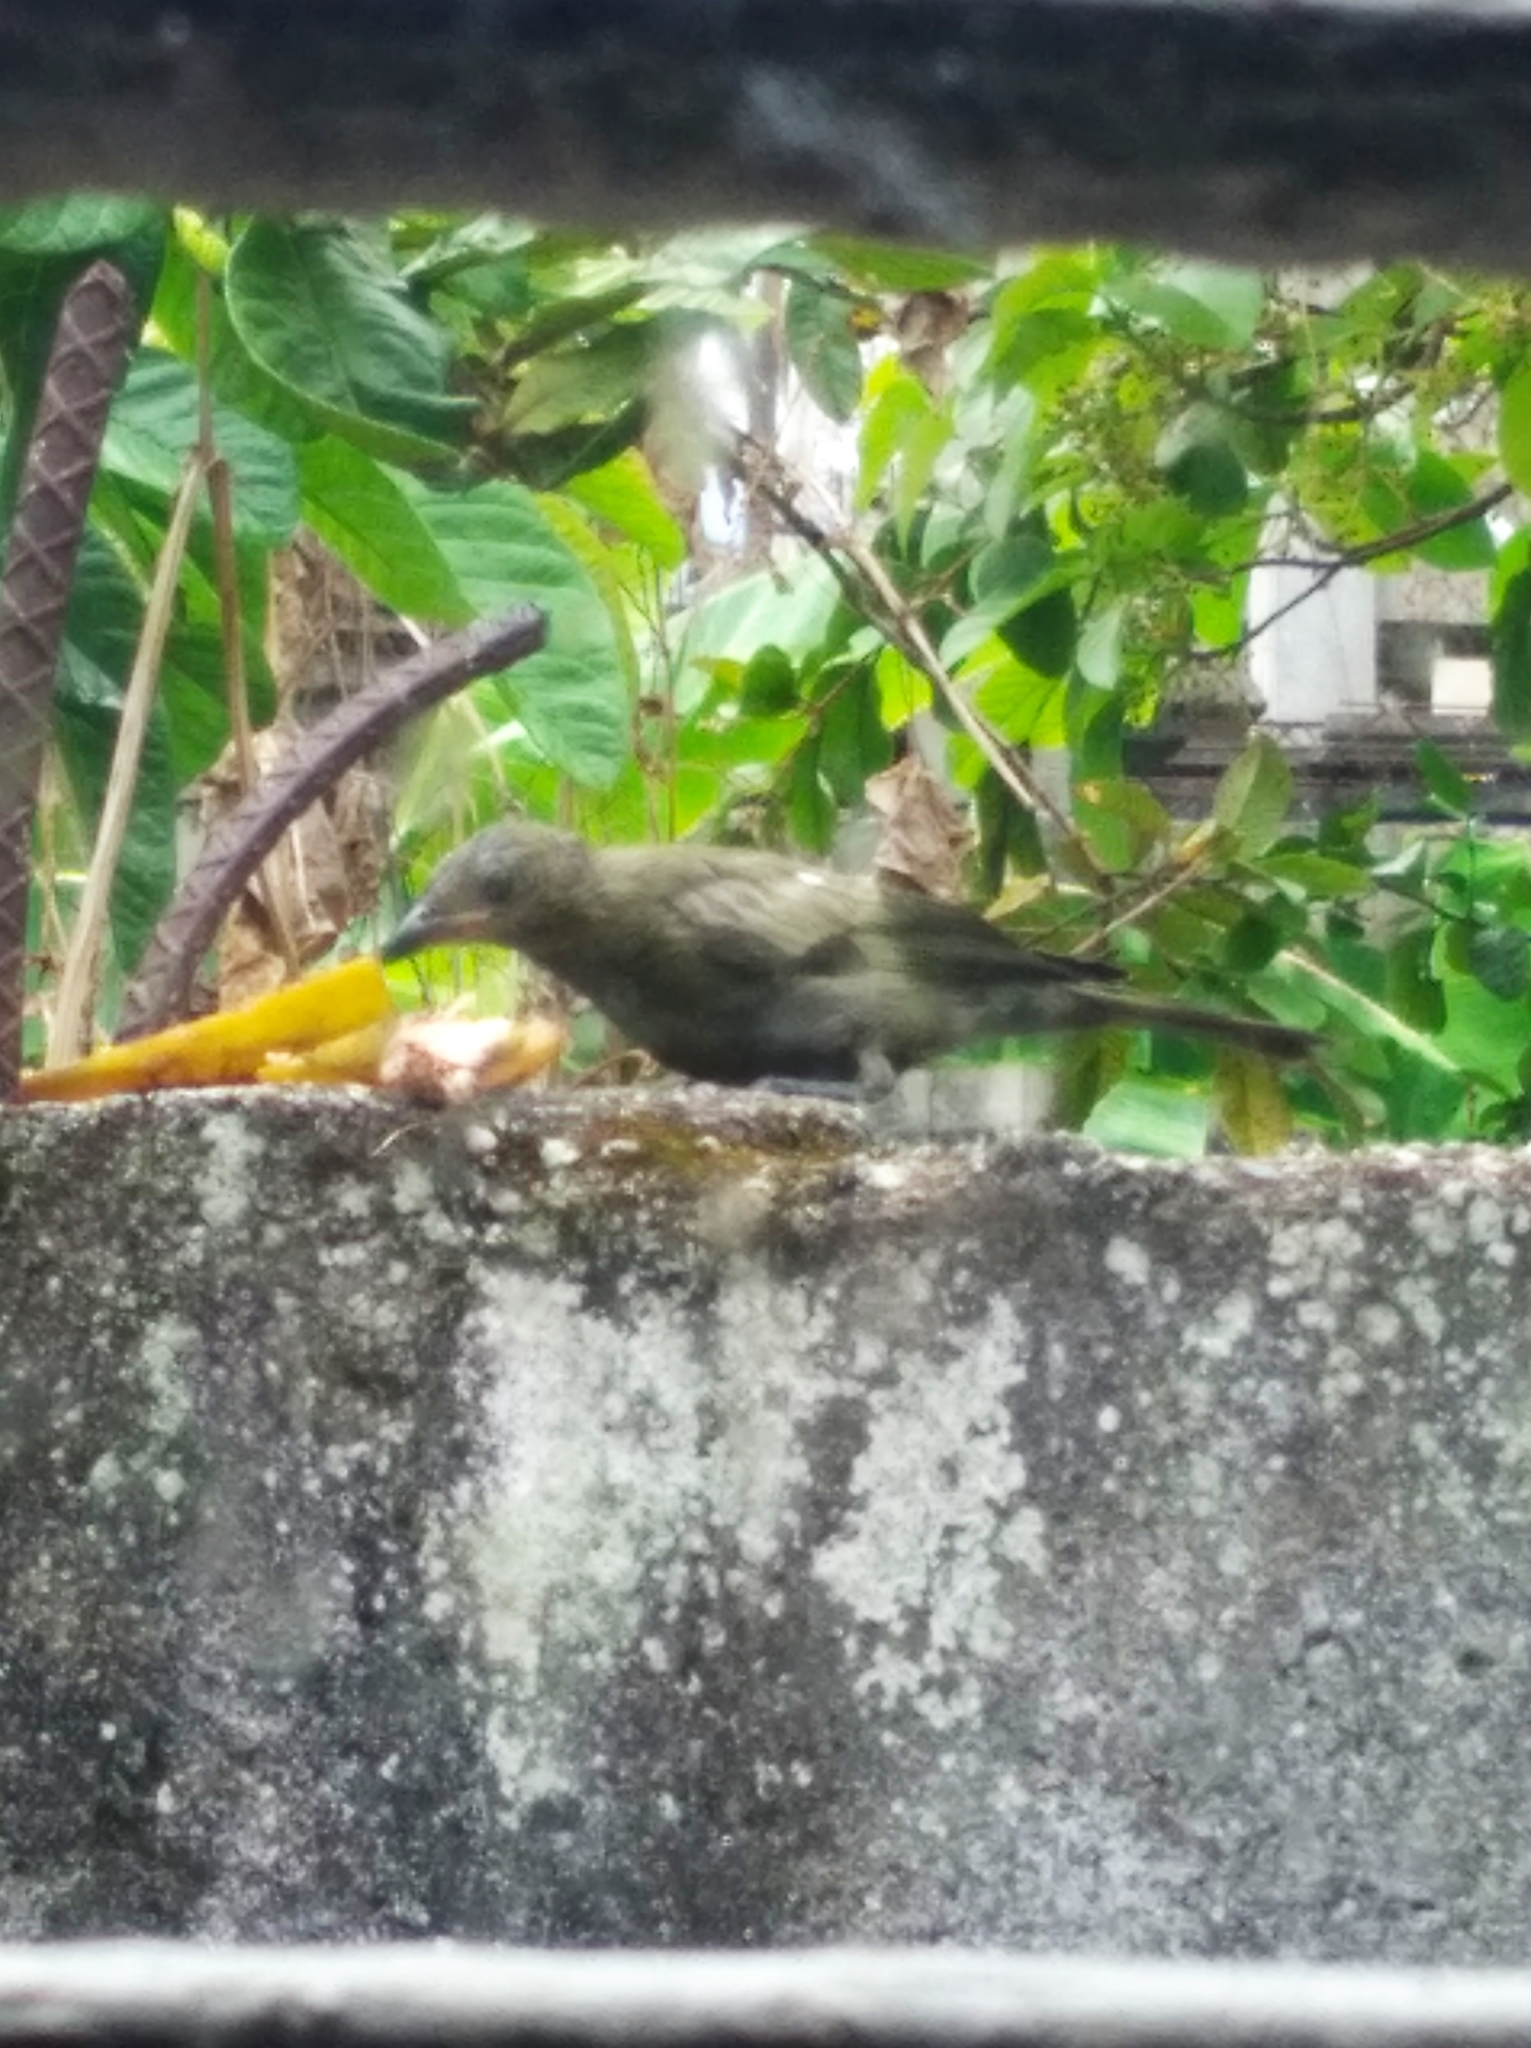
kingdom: Animalia
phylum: Chordata
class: Aves
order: Passeriformes
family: Thraupidae
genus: Thraupis
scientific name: Thraupis palmarum
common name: Palm tanager
